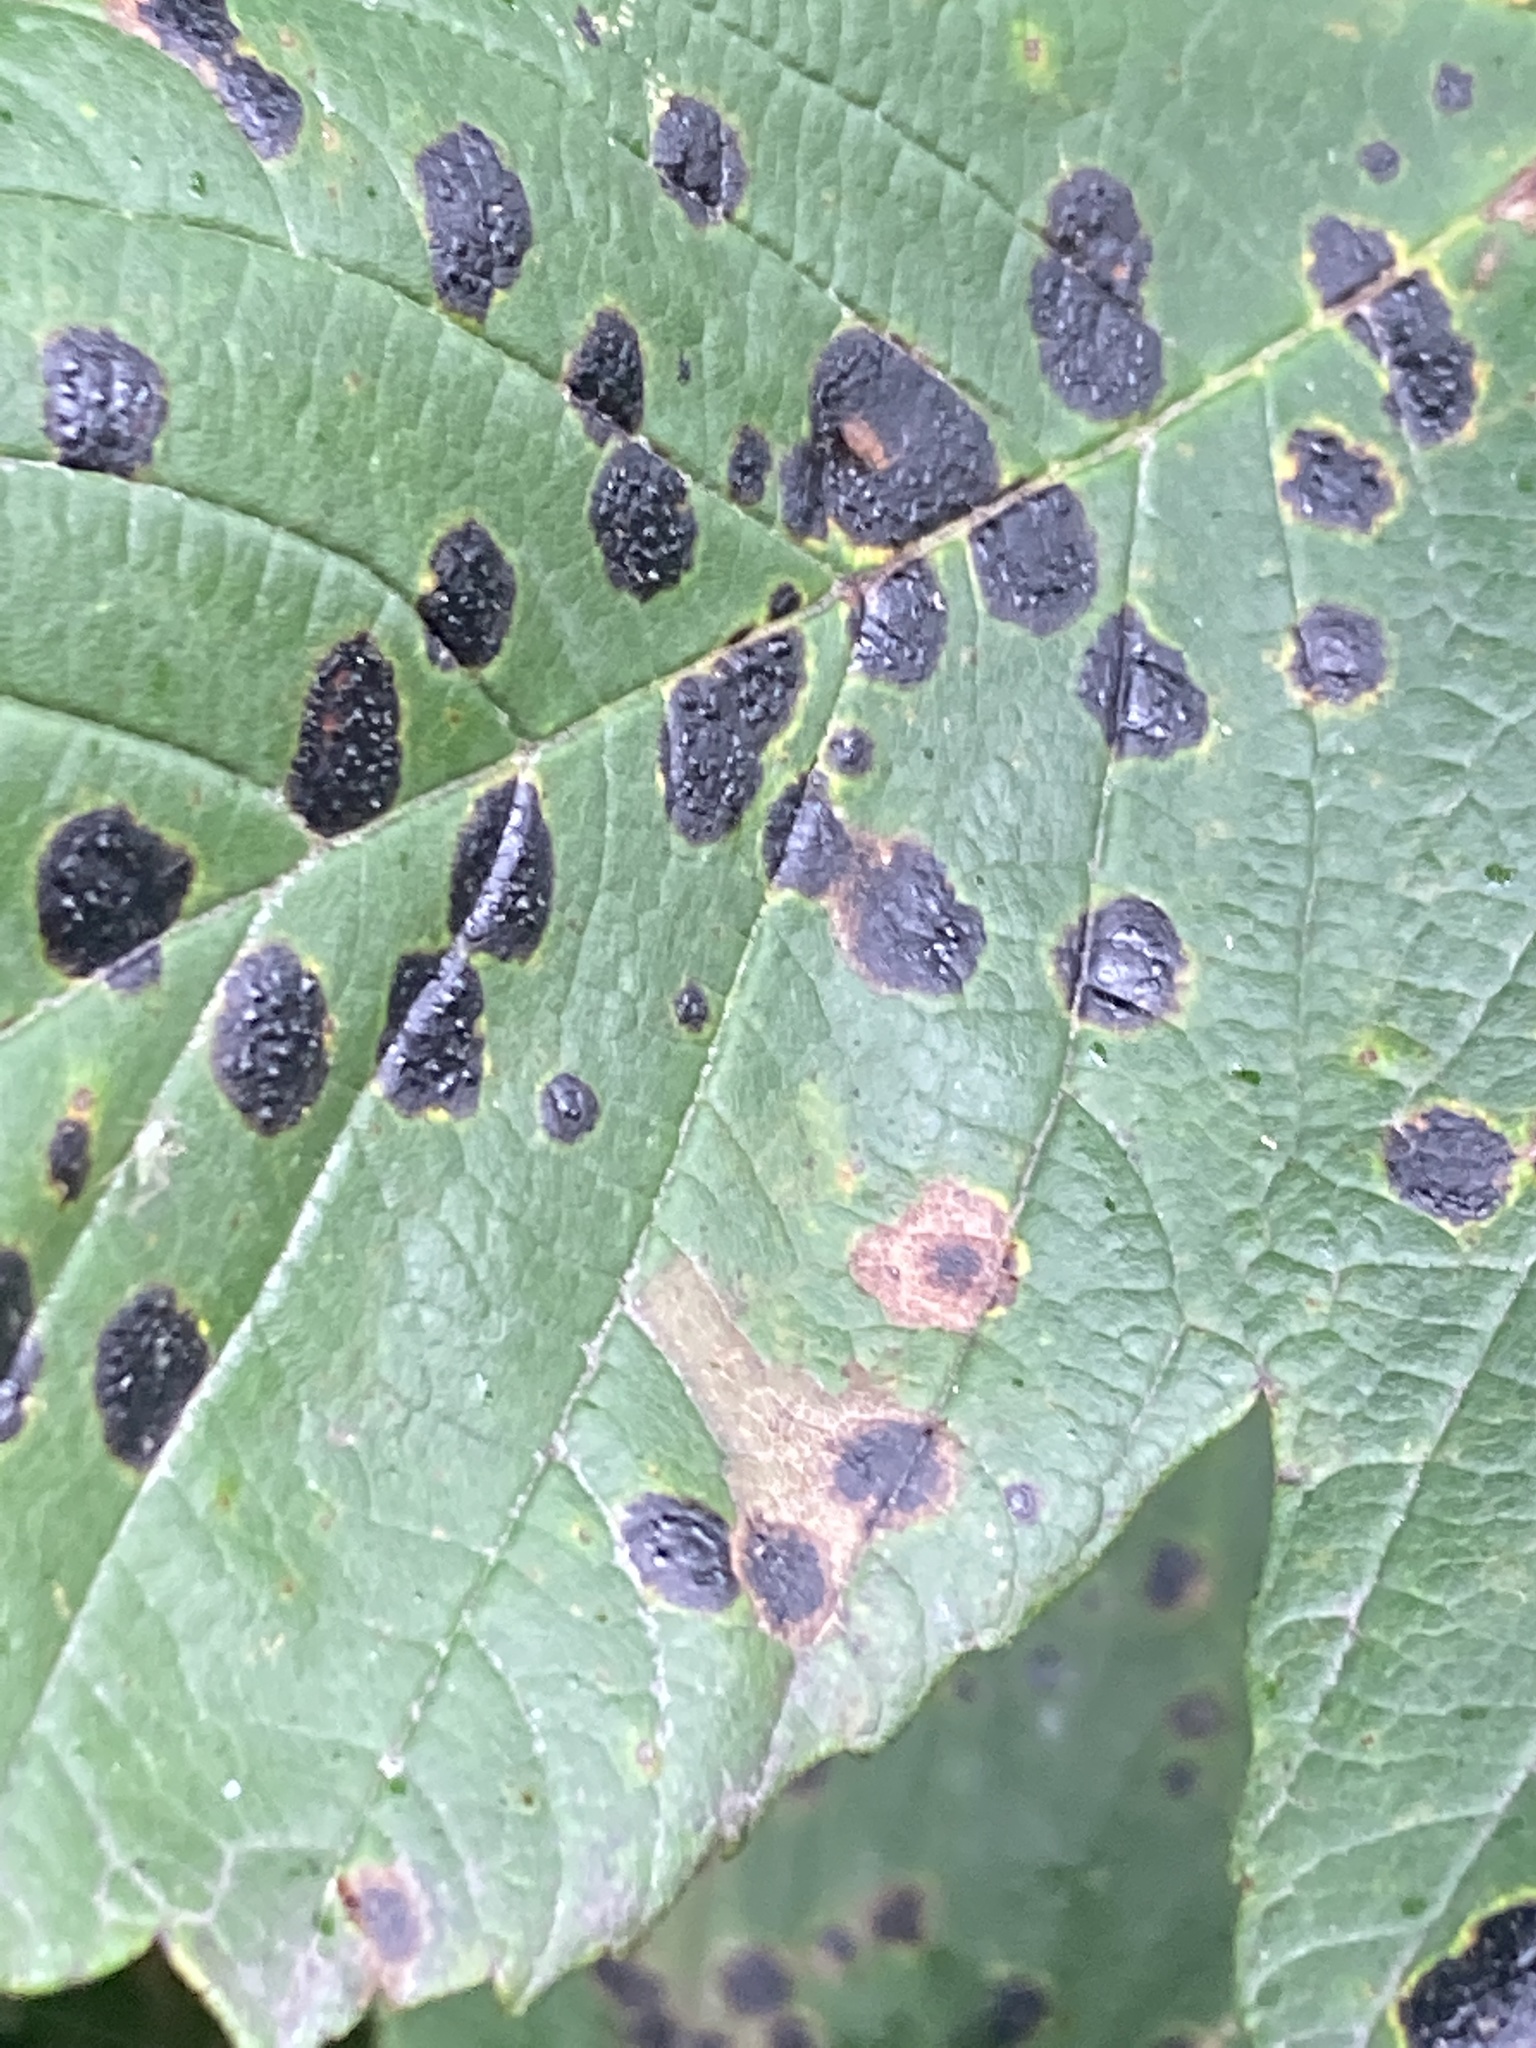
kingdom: Fungi
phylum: Ascomycota
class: Leotiomycetes
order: Rhytismatales
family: Rhytismataceae
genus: Rhytisma
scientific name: Rhytisma acerinum
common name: European tar spot
